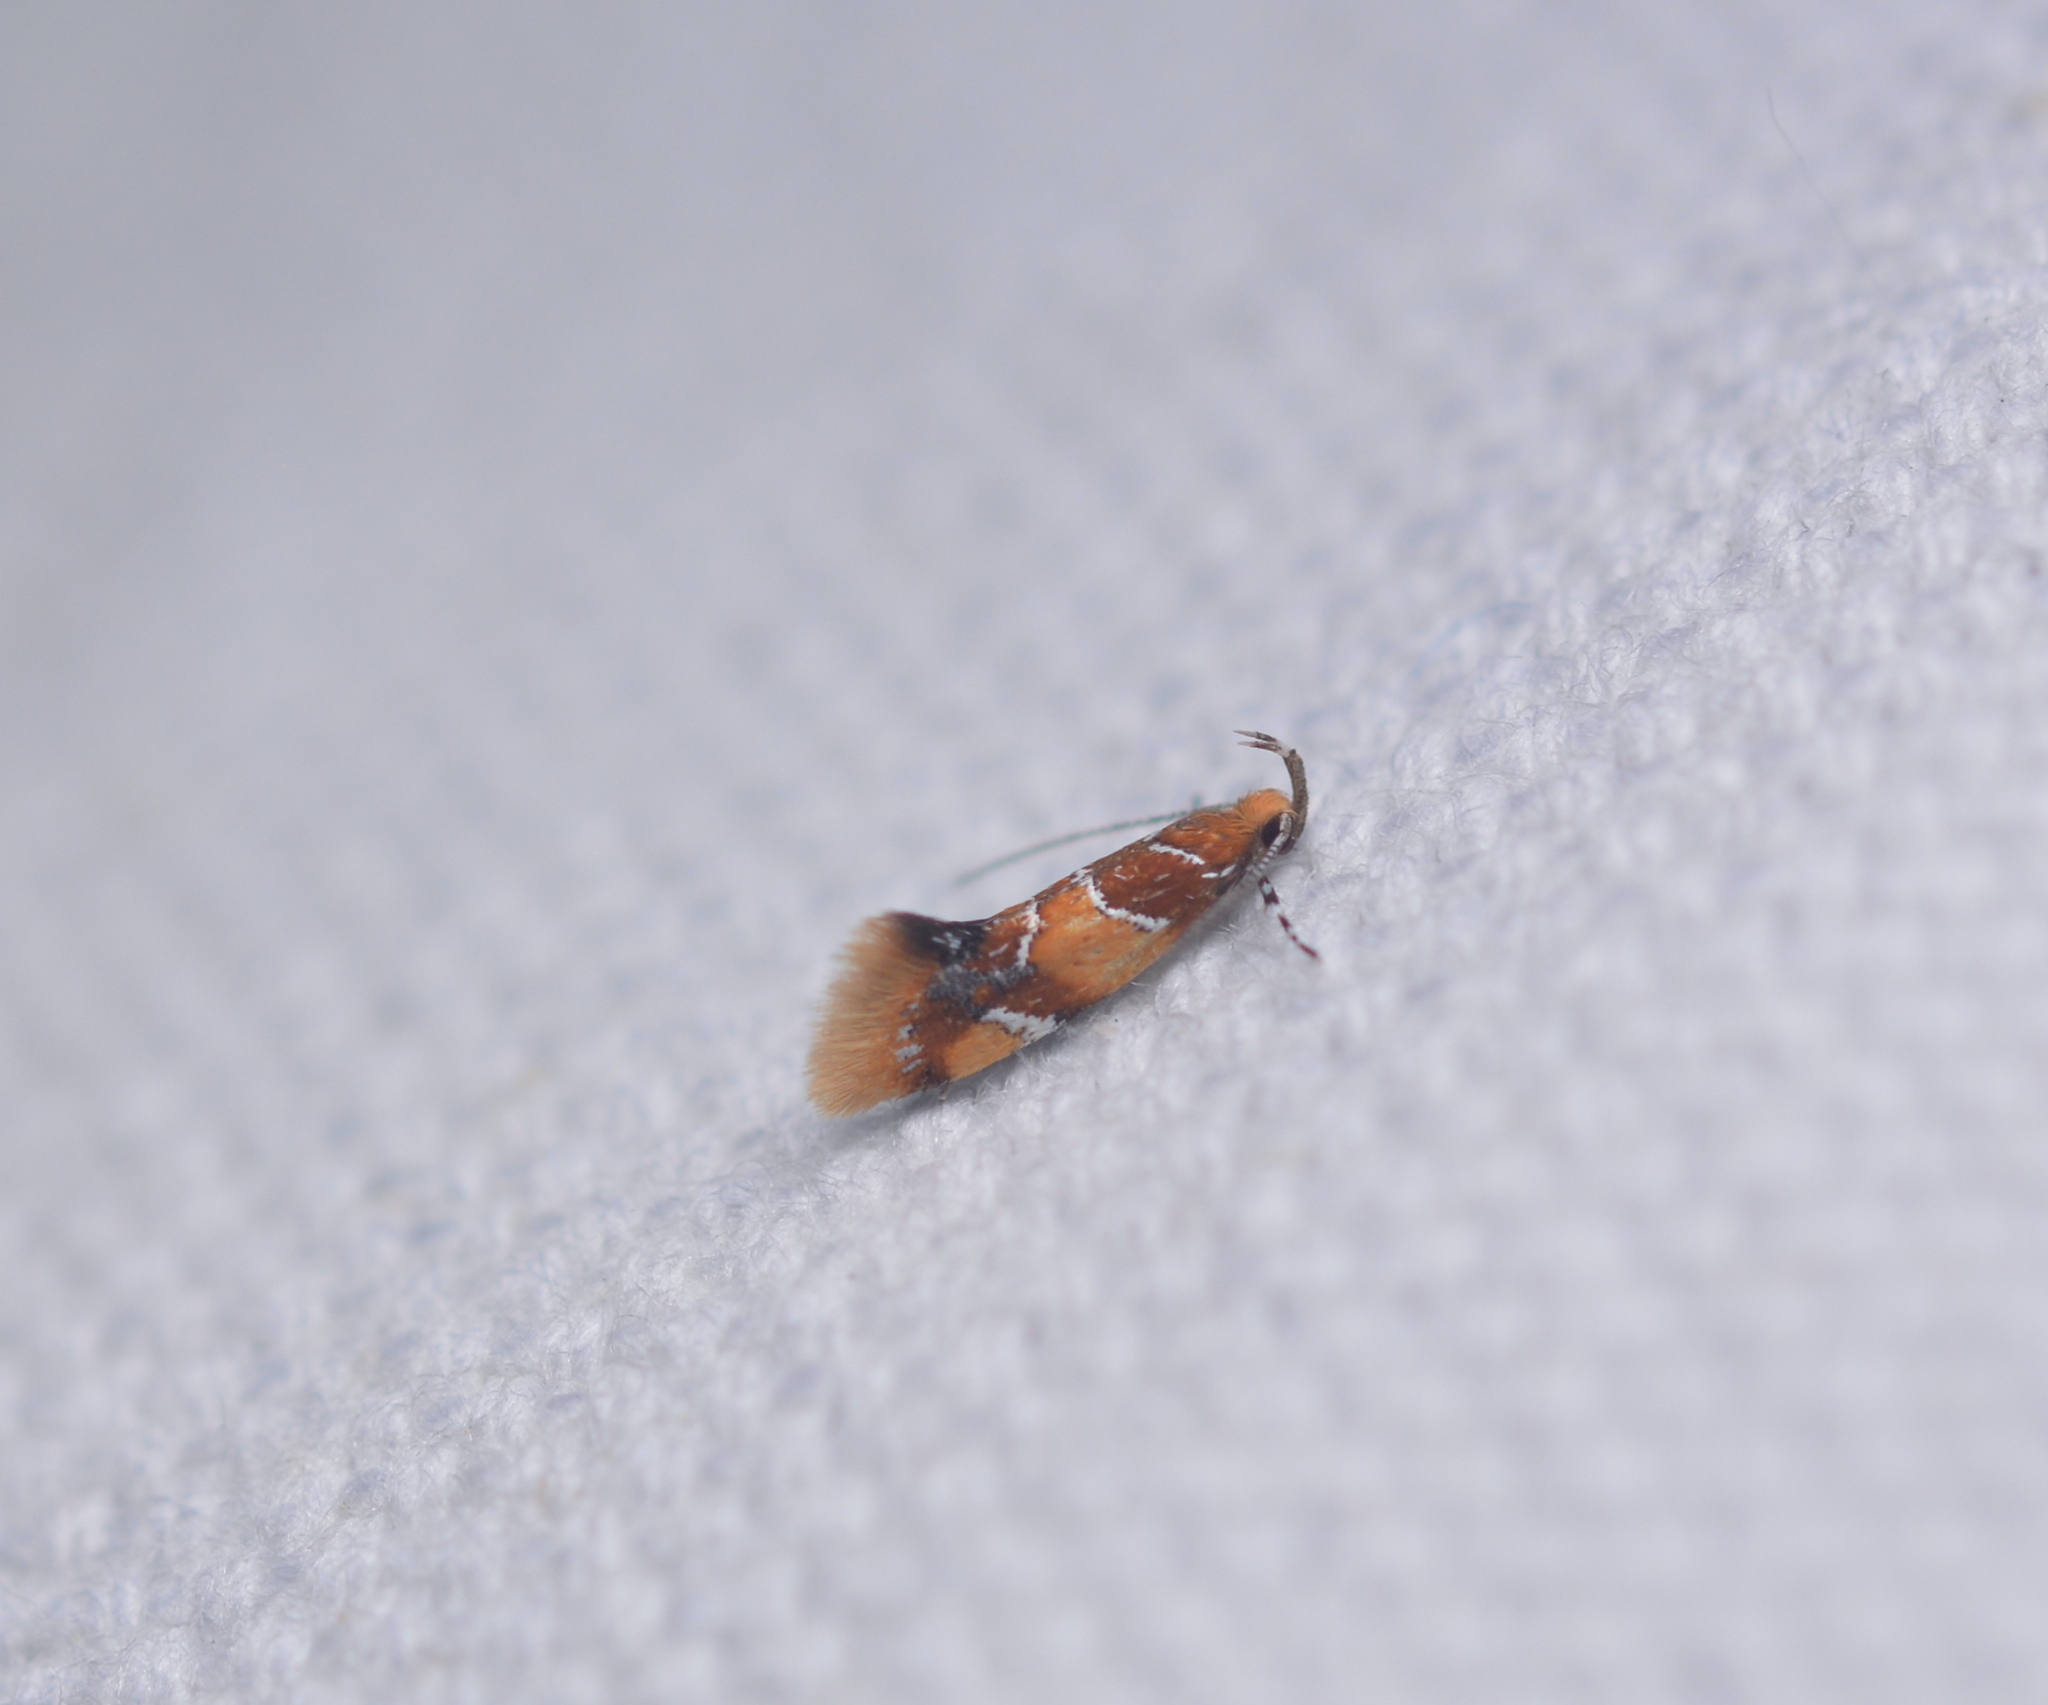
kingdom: Animalia
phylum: Arthropoda
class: Insecta
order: Lepidoptera
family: Oecophoridae
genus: Callima
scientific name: Callima argenticinctella
